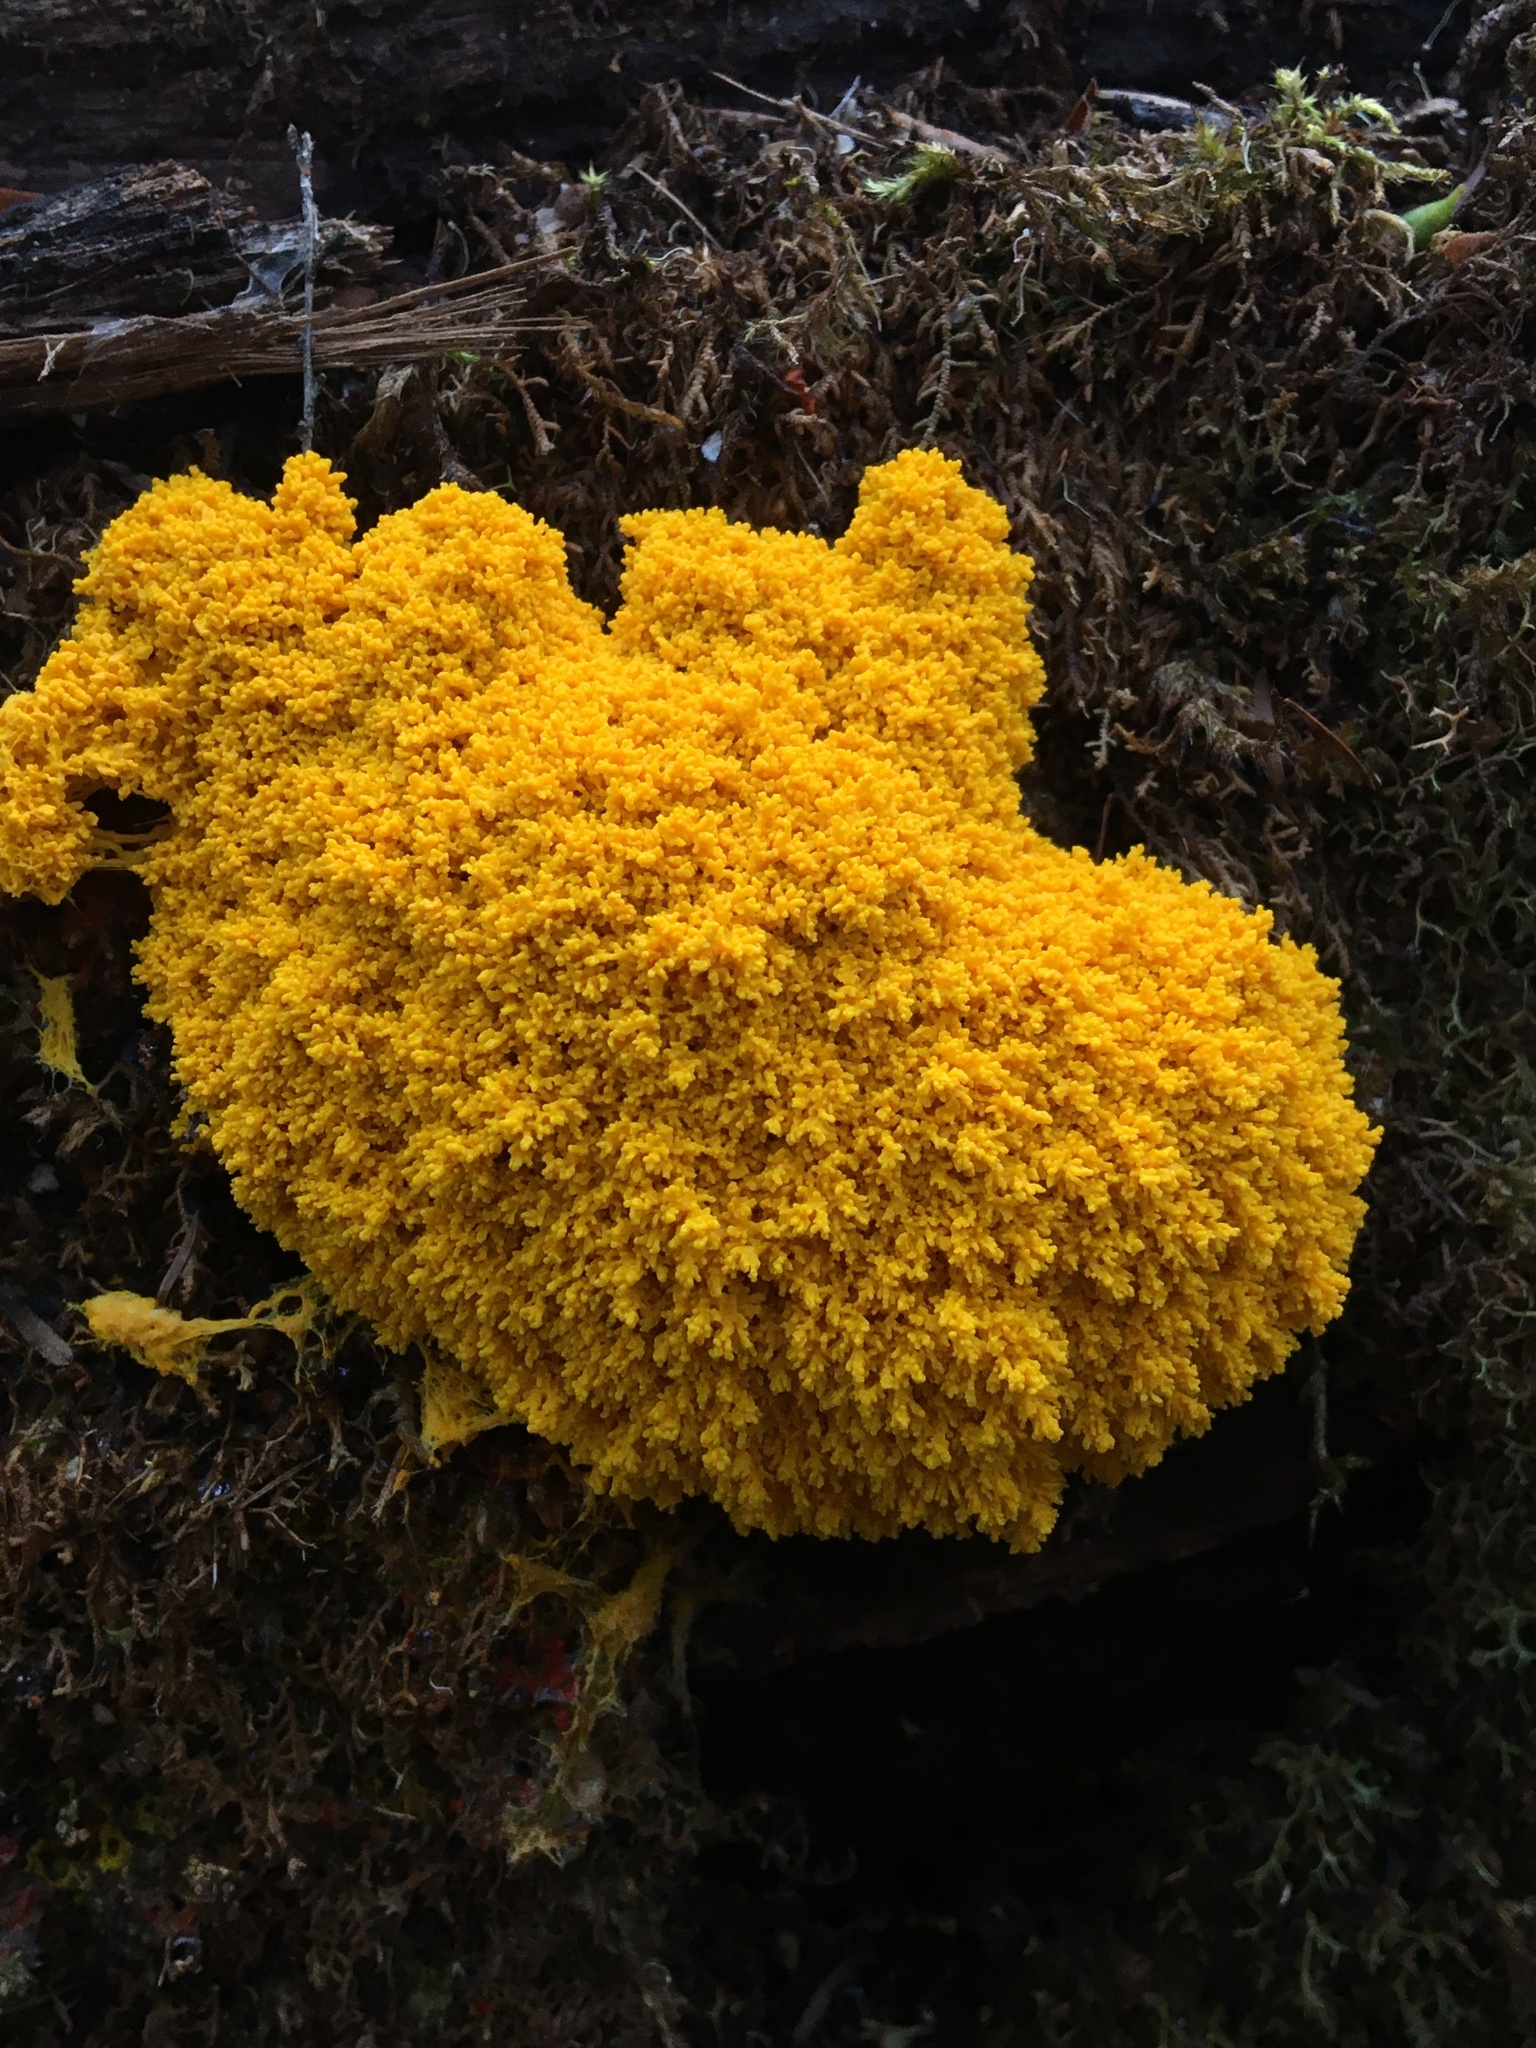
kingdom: Protozoa
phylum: Mycetozoa
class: Myxomycetes
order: Physarales
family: Physaraceae
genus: Fuligo
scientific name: Fuligo septica
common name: Dog vomit slime mold
